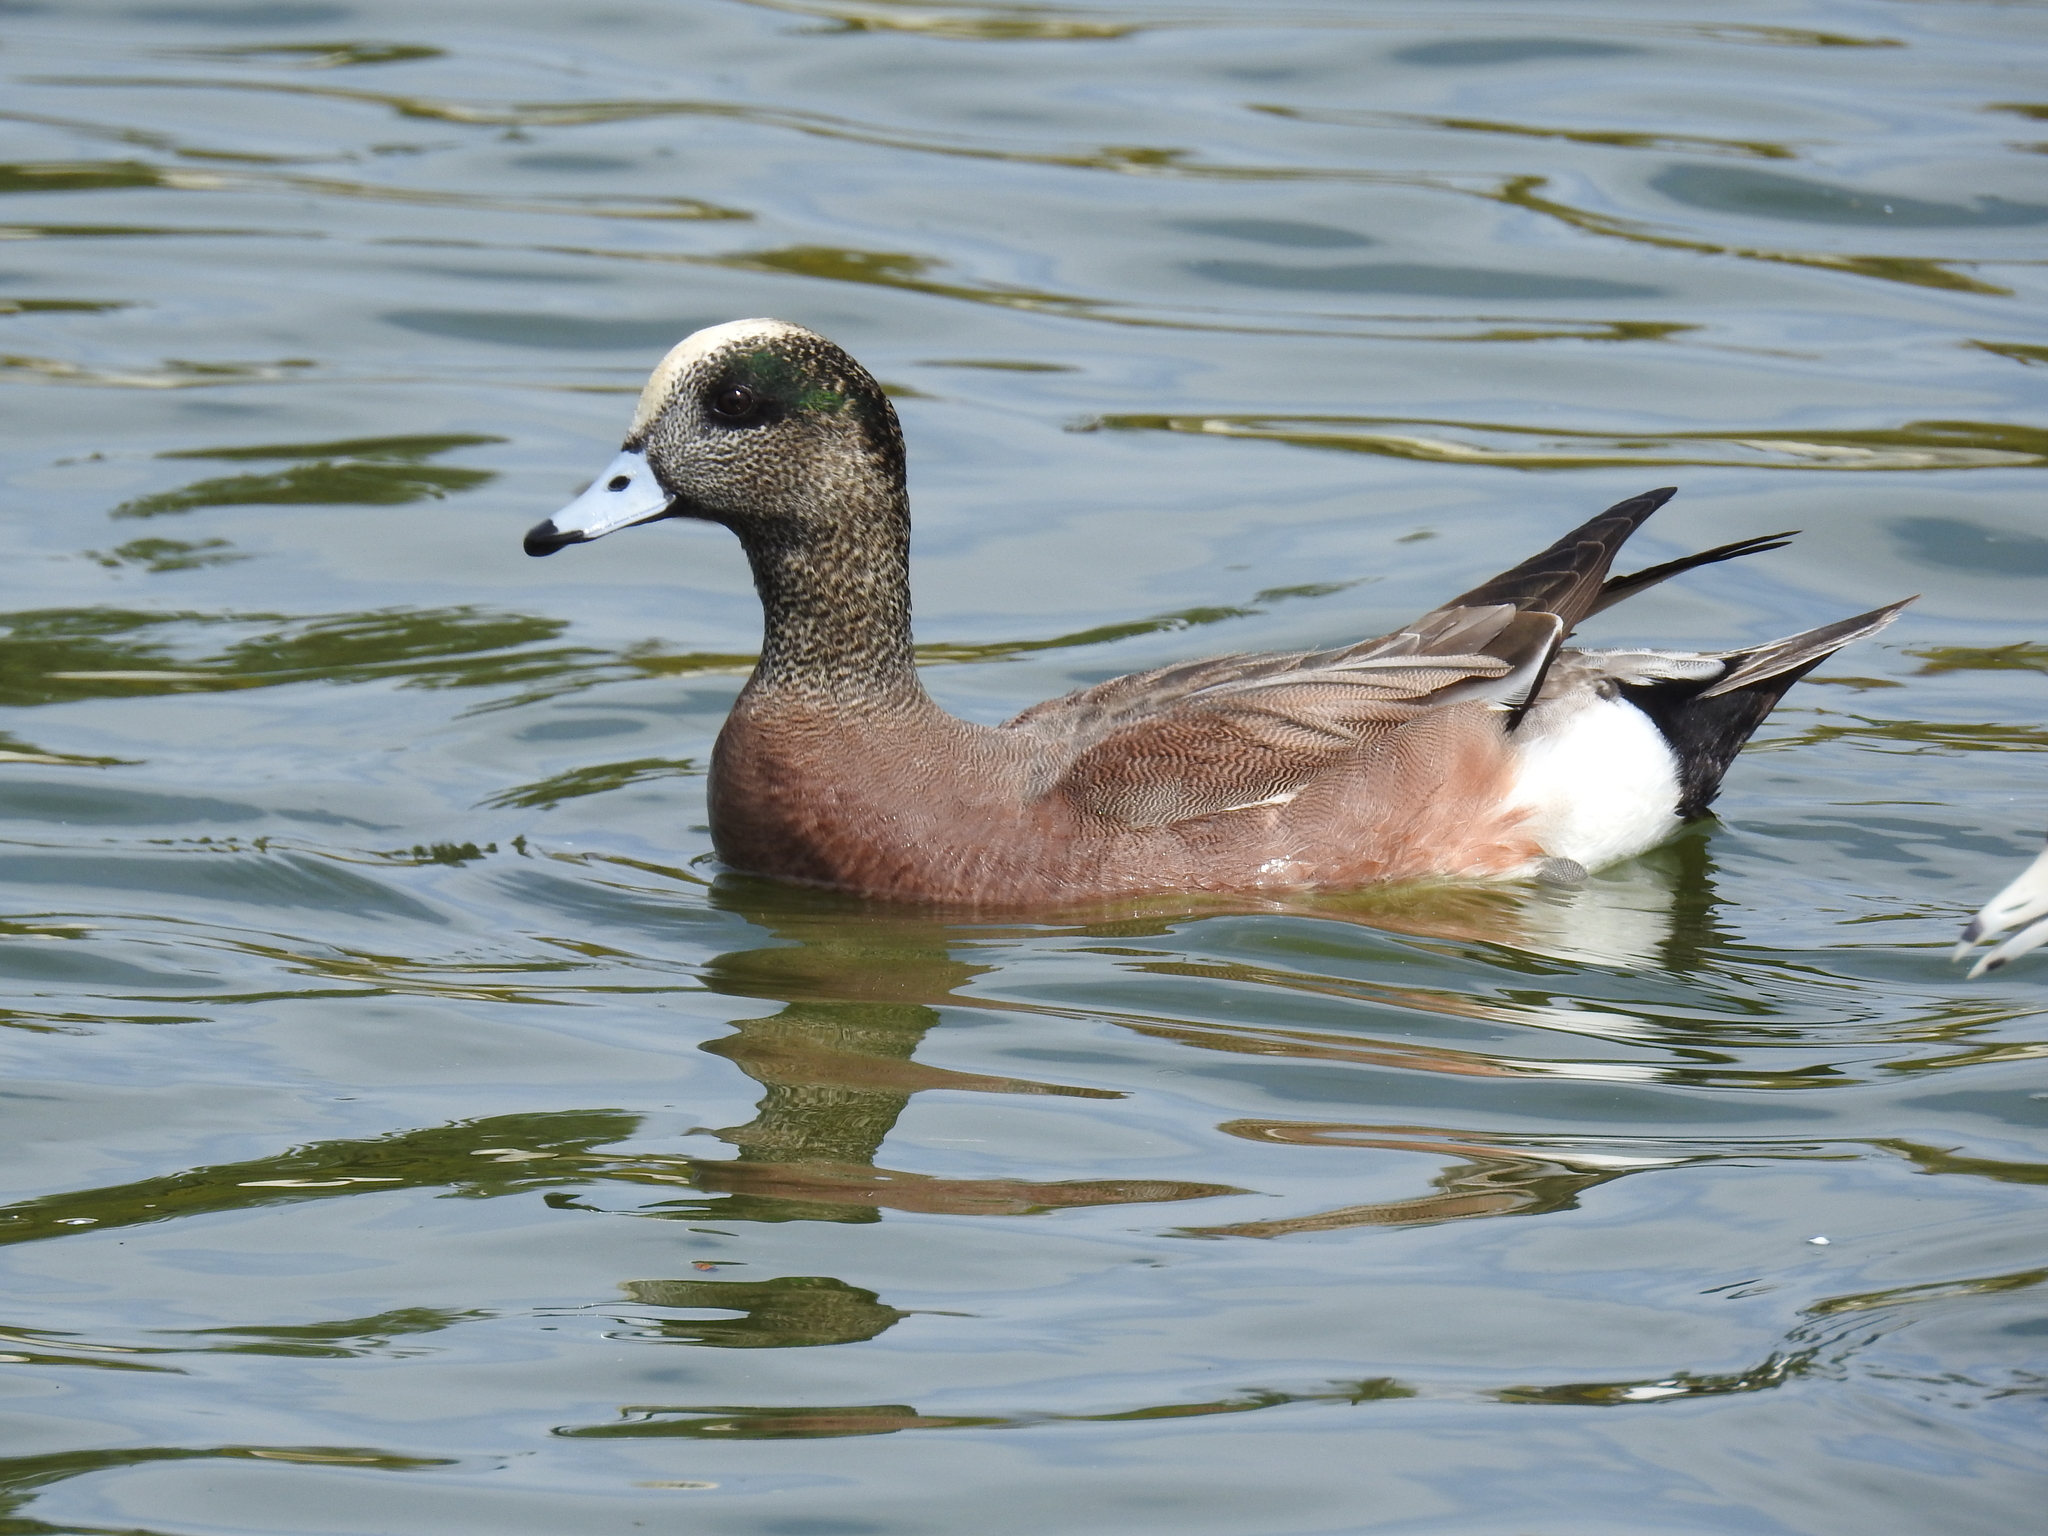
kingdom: Animalia
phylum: Chordata
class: Aves
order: Anseriformes
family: Anatidae
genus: Mareca
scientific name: Mareca americana
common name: American wigeon
